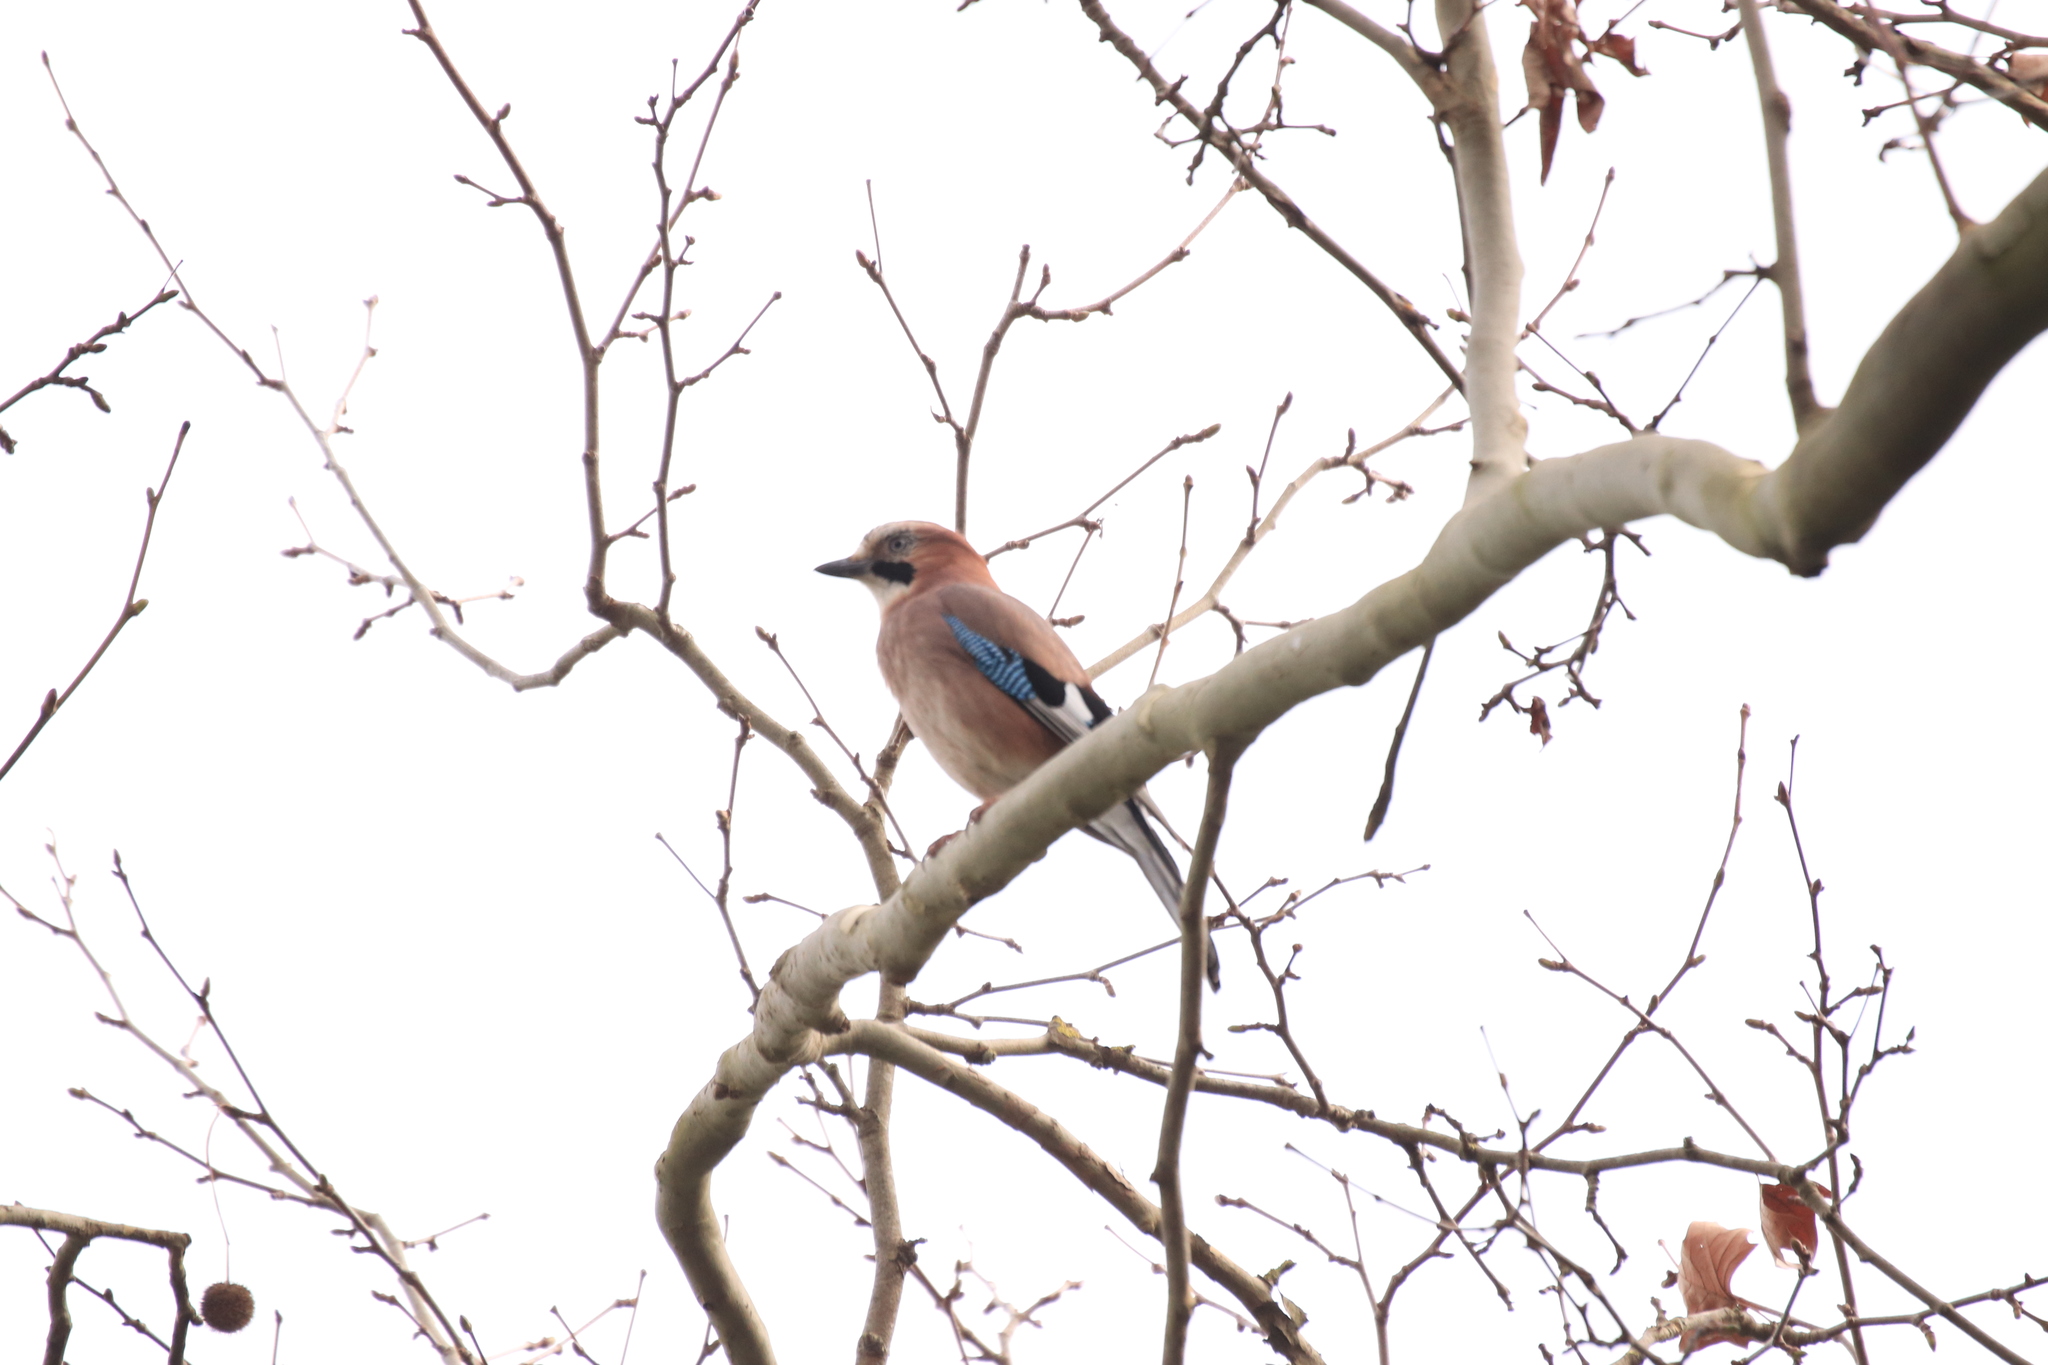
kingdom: Animalia
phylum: Chordata
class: Aves
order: Passeriformes
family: Corvidae
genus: Garrulus
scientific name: Garrulus glandarius
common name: Eurasian jay
